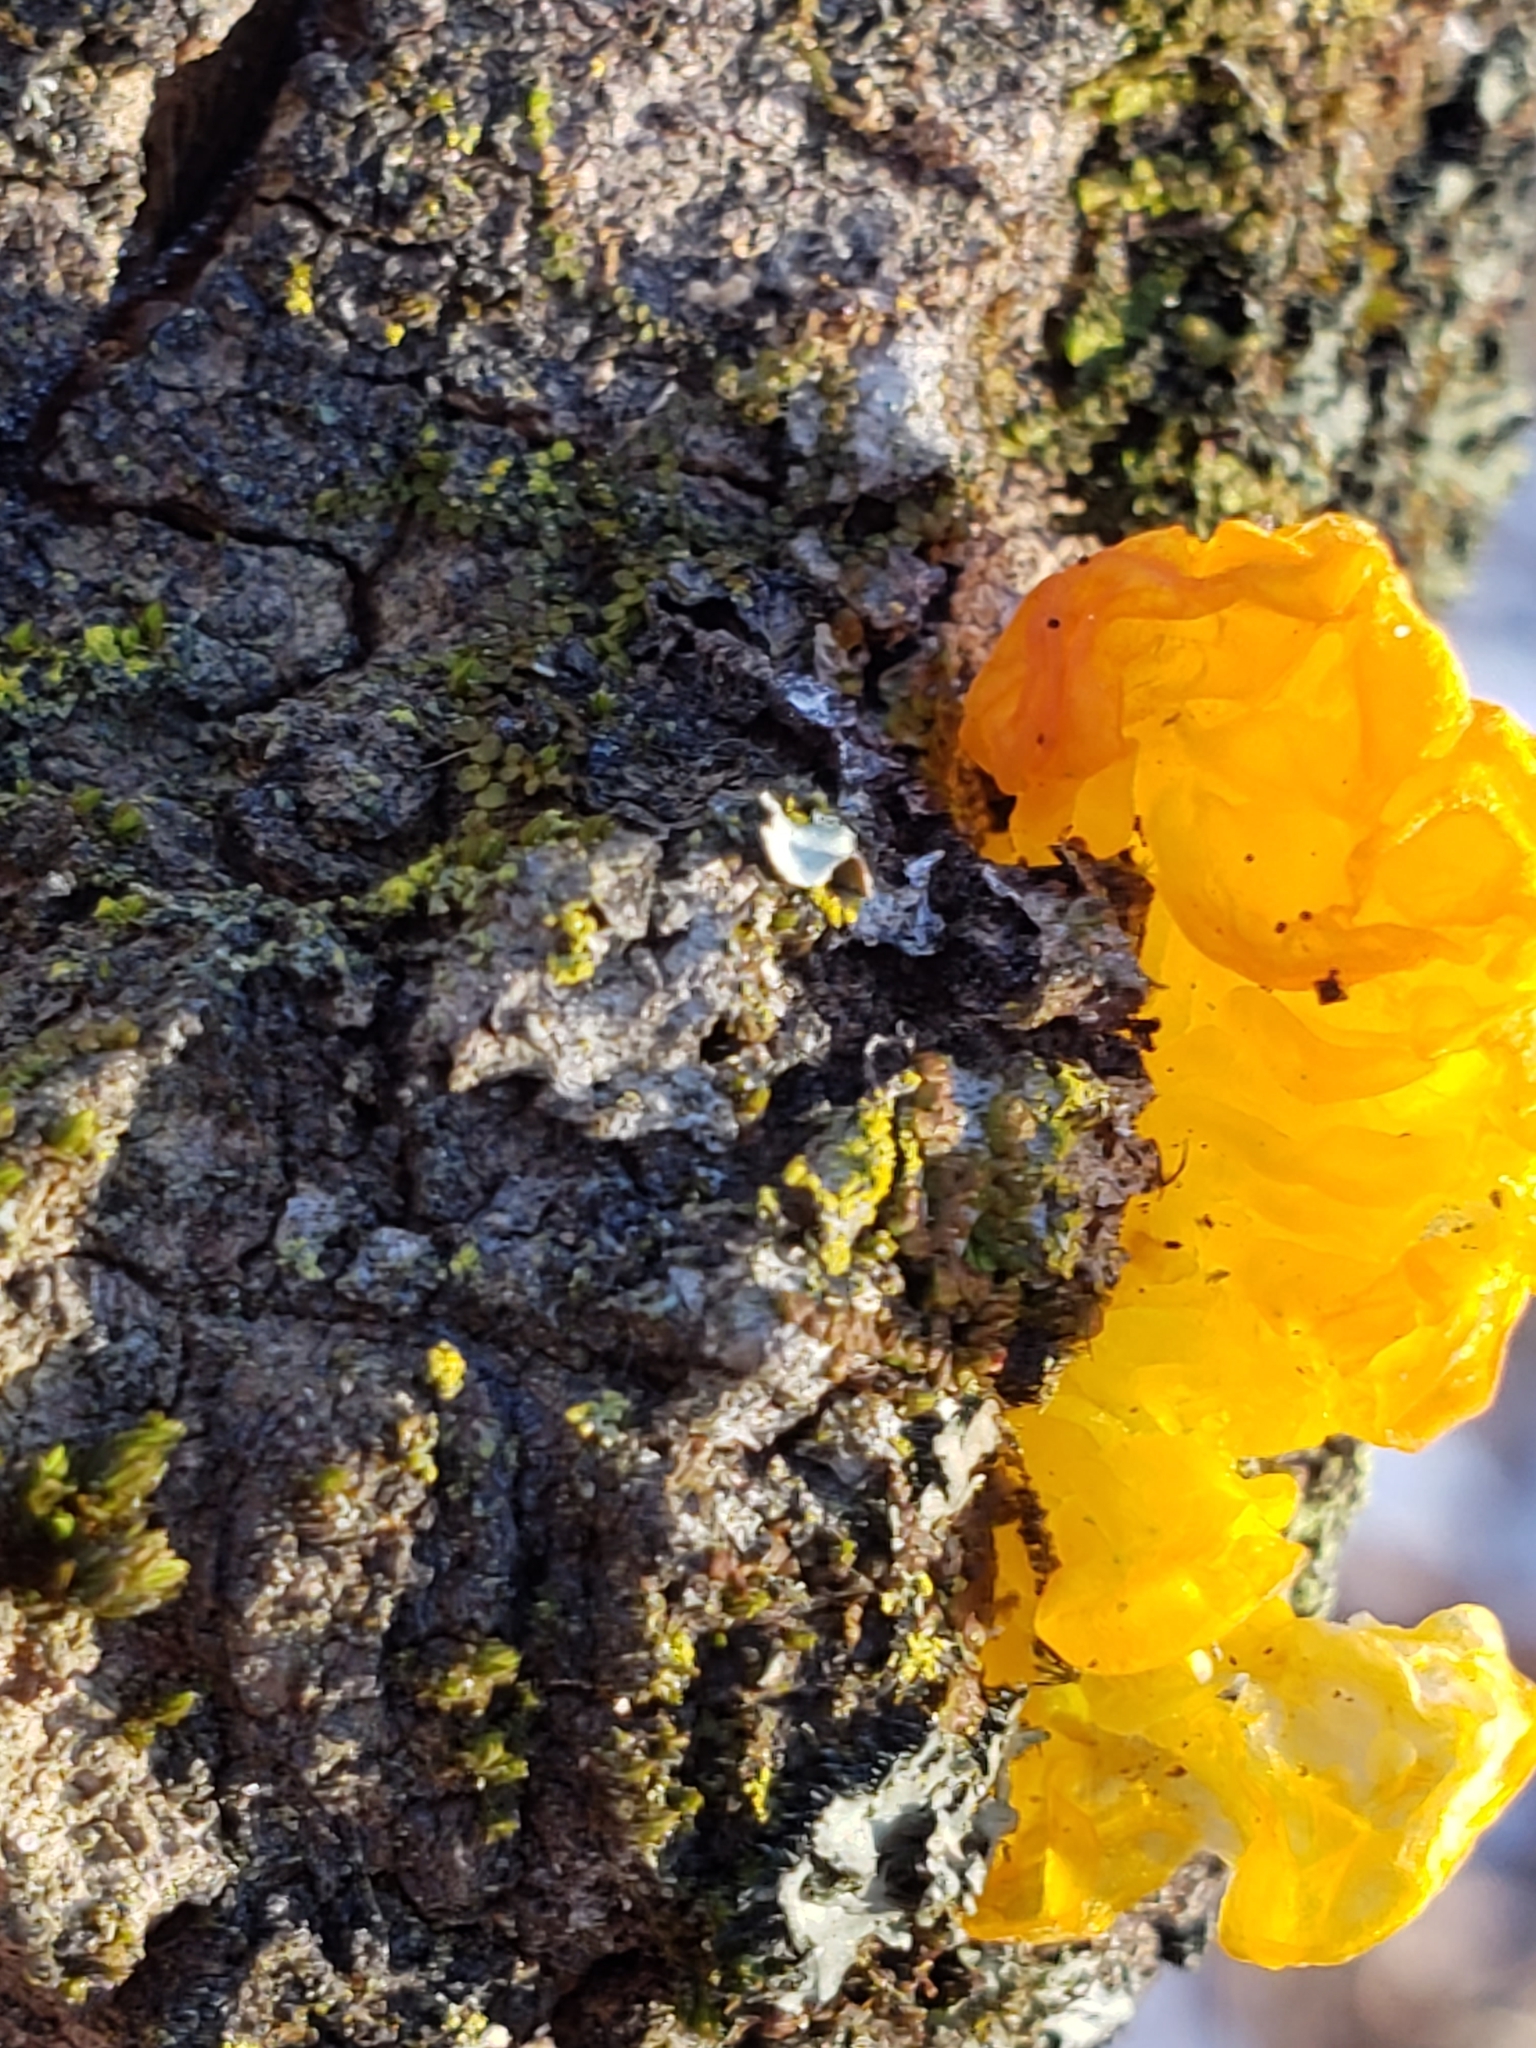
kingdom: Fungi
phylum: Basidiomycota
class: Tremellomycetes
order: Tremellales
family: Tremellaceae
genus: Tremella
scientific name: Tremella mesenterica
